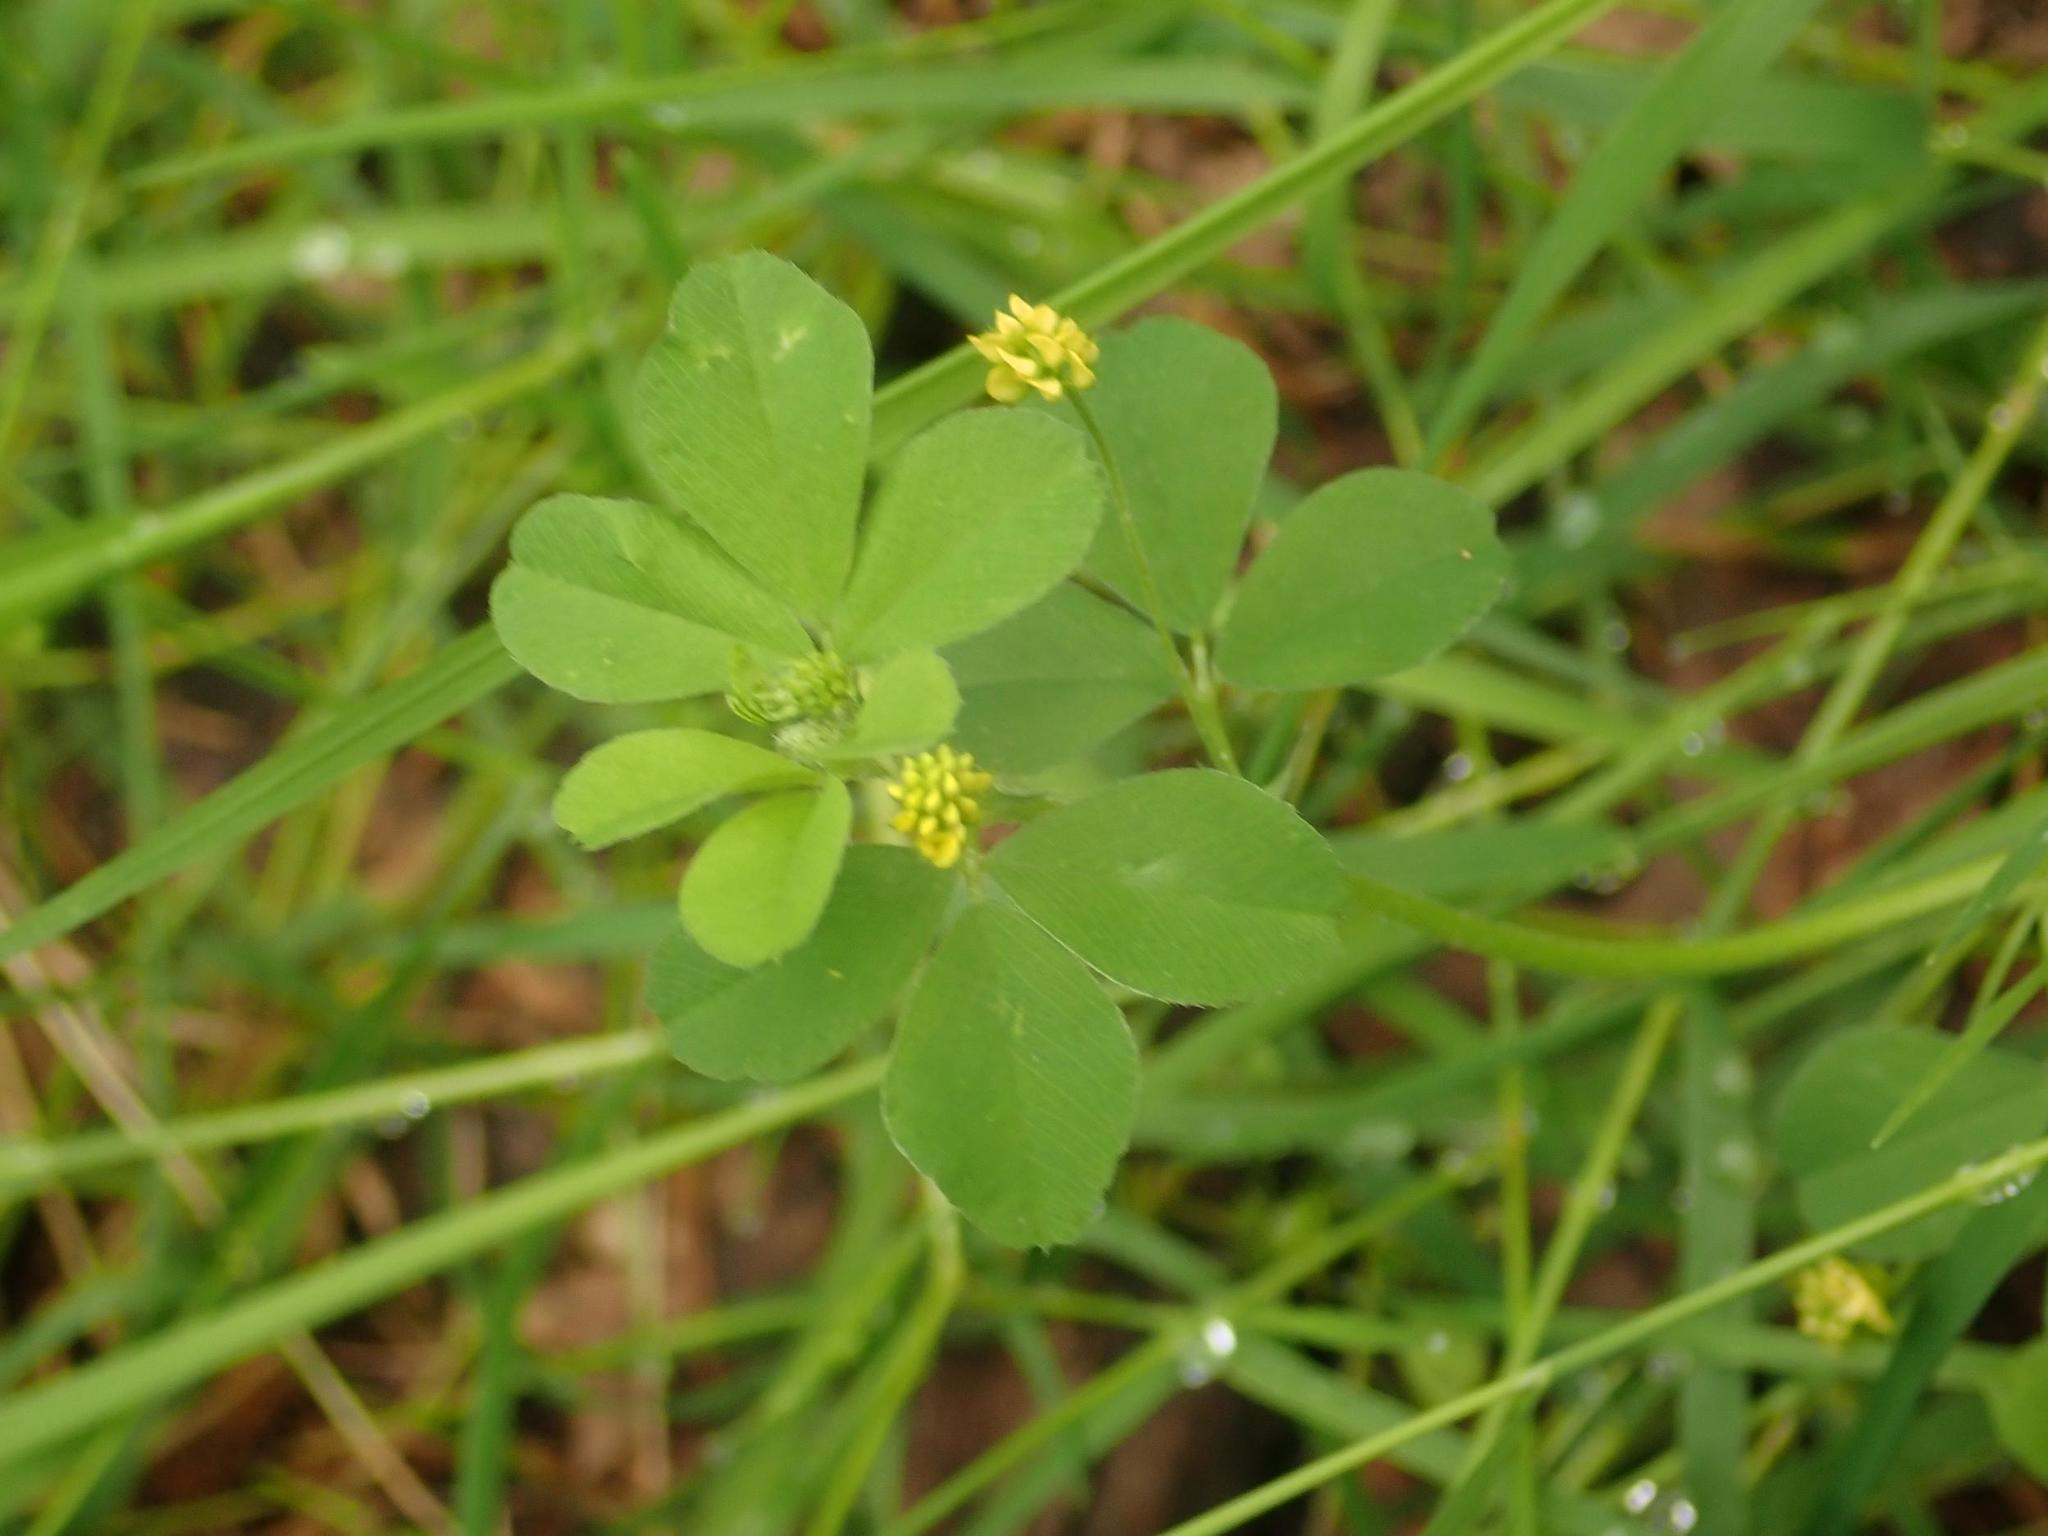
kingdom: Plantae
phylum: Tracheophyta
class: Magnoliopsida
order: Fabales
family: Fabaceae
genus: Medicago
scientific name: Medicago lupulina
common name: Black medick
